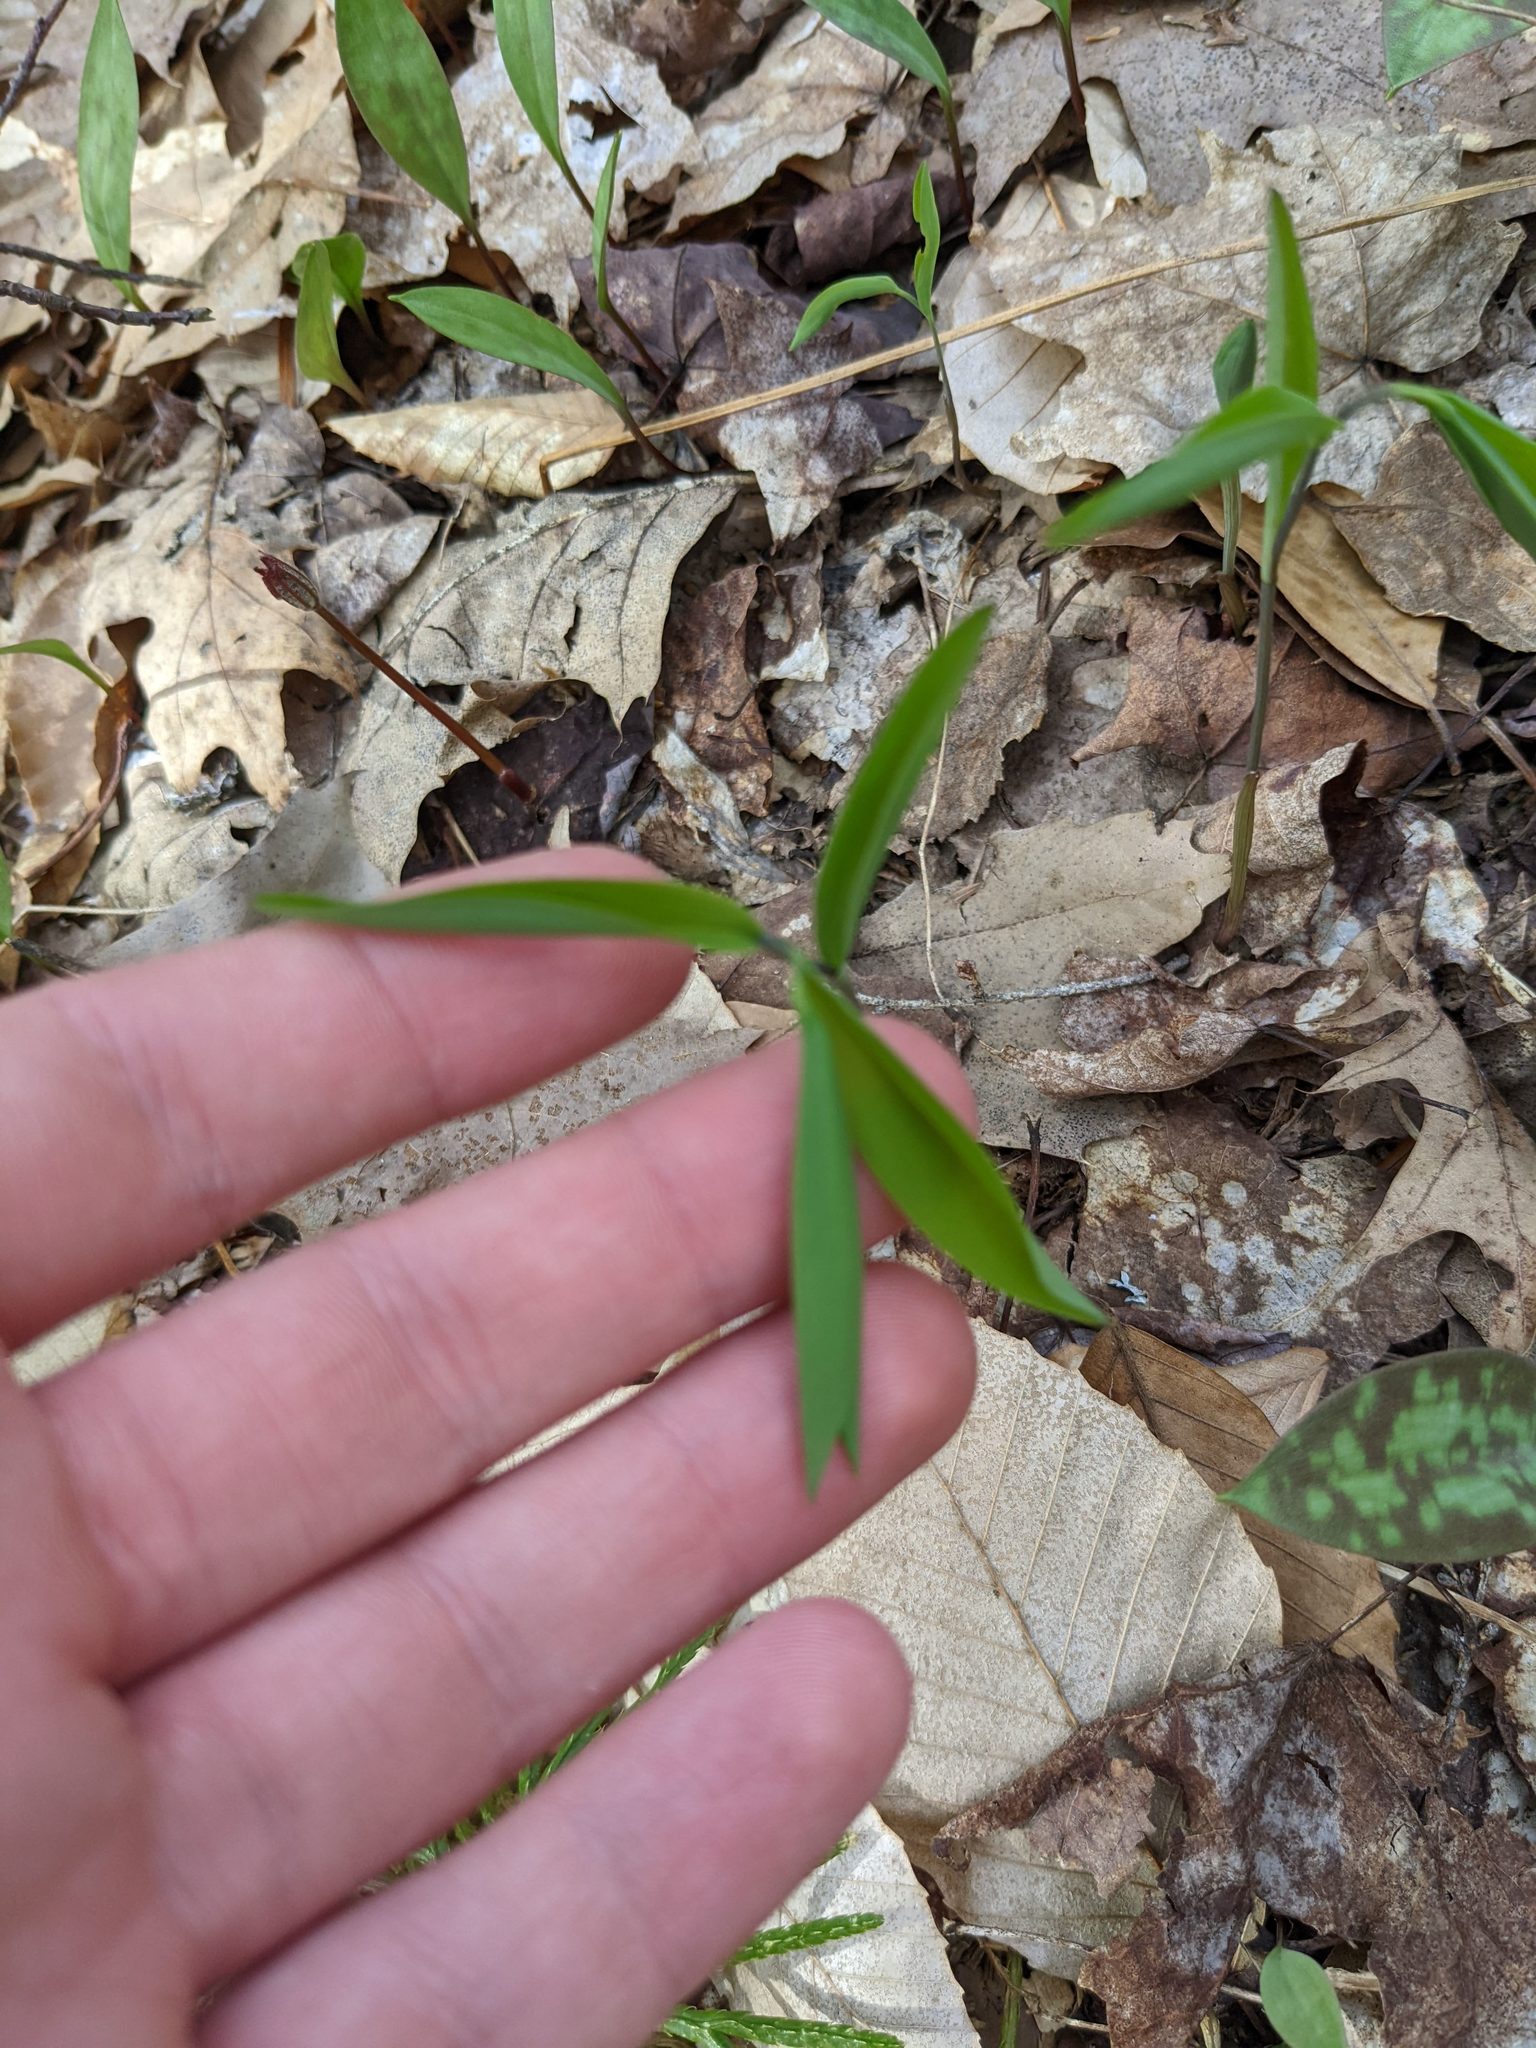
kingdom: Plantae
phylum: Tracheophyta
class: Liliopsida
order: Liliales
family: Colchicaceae
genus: Uvularia
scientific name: Uvularia sessilifolia
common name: Straw-lily
